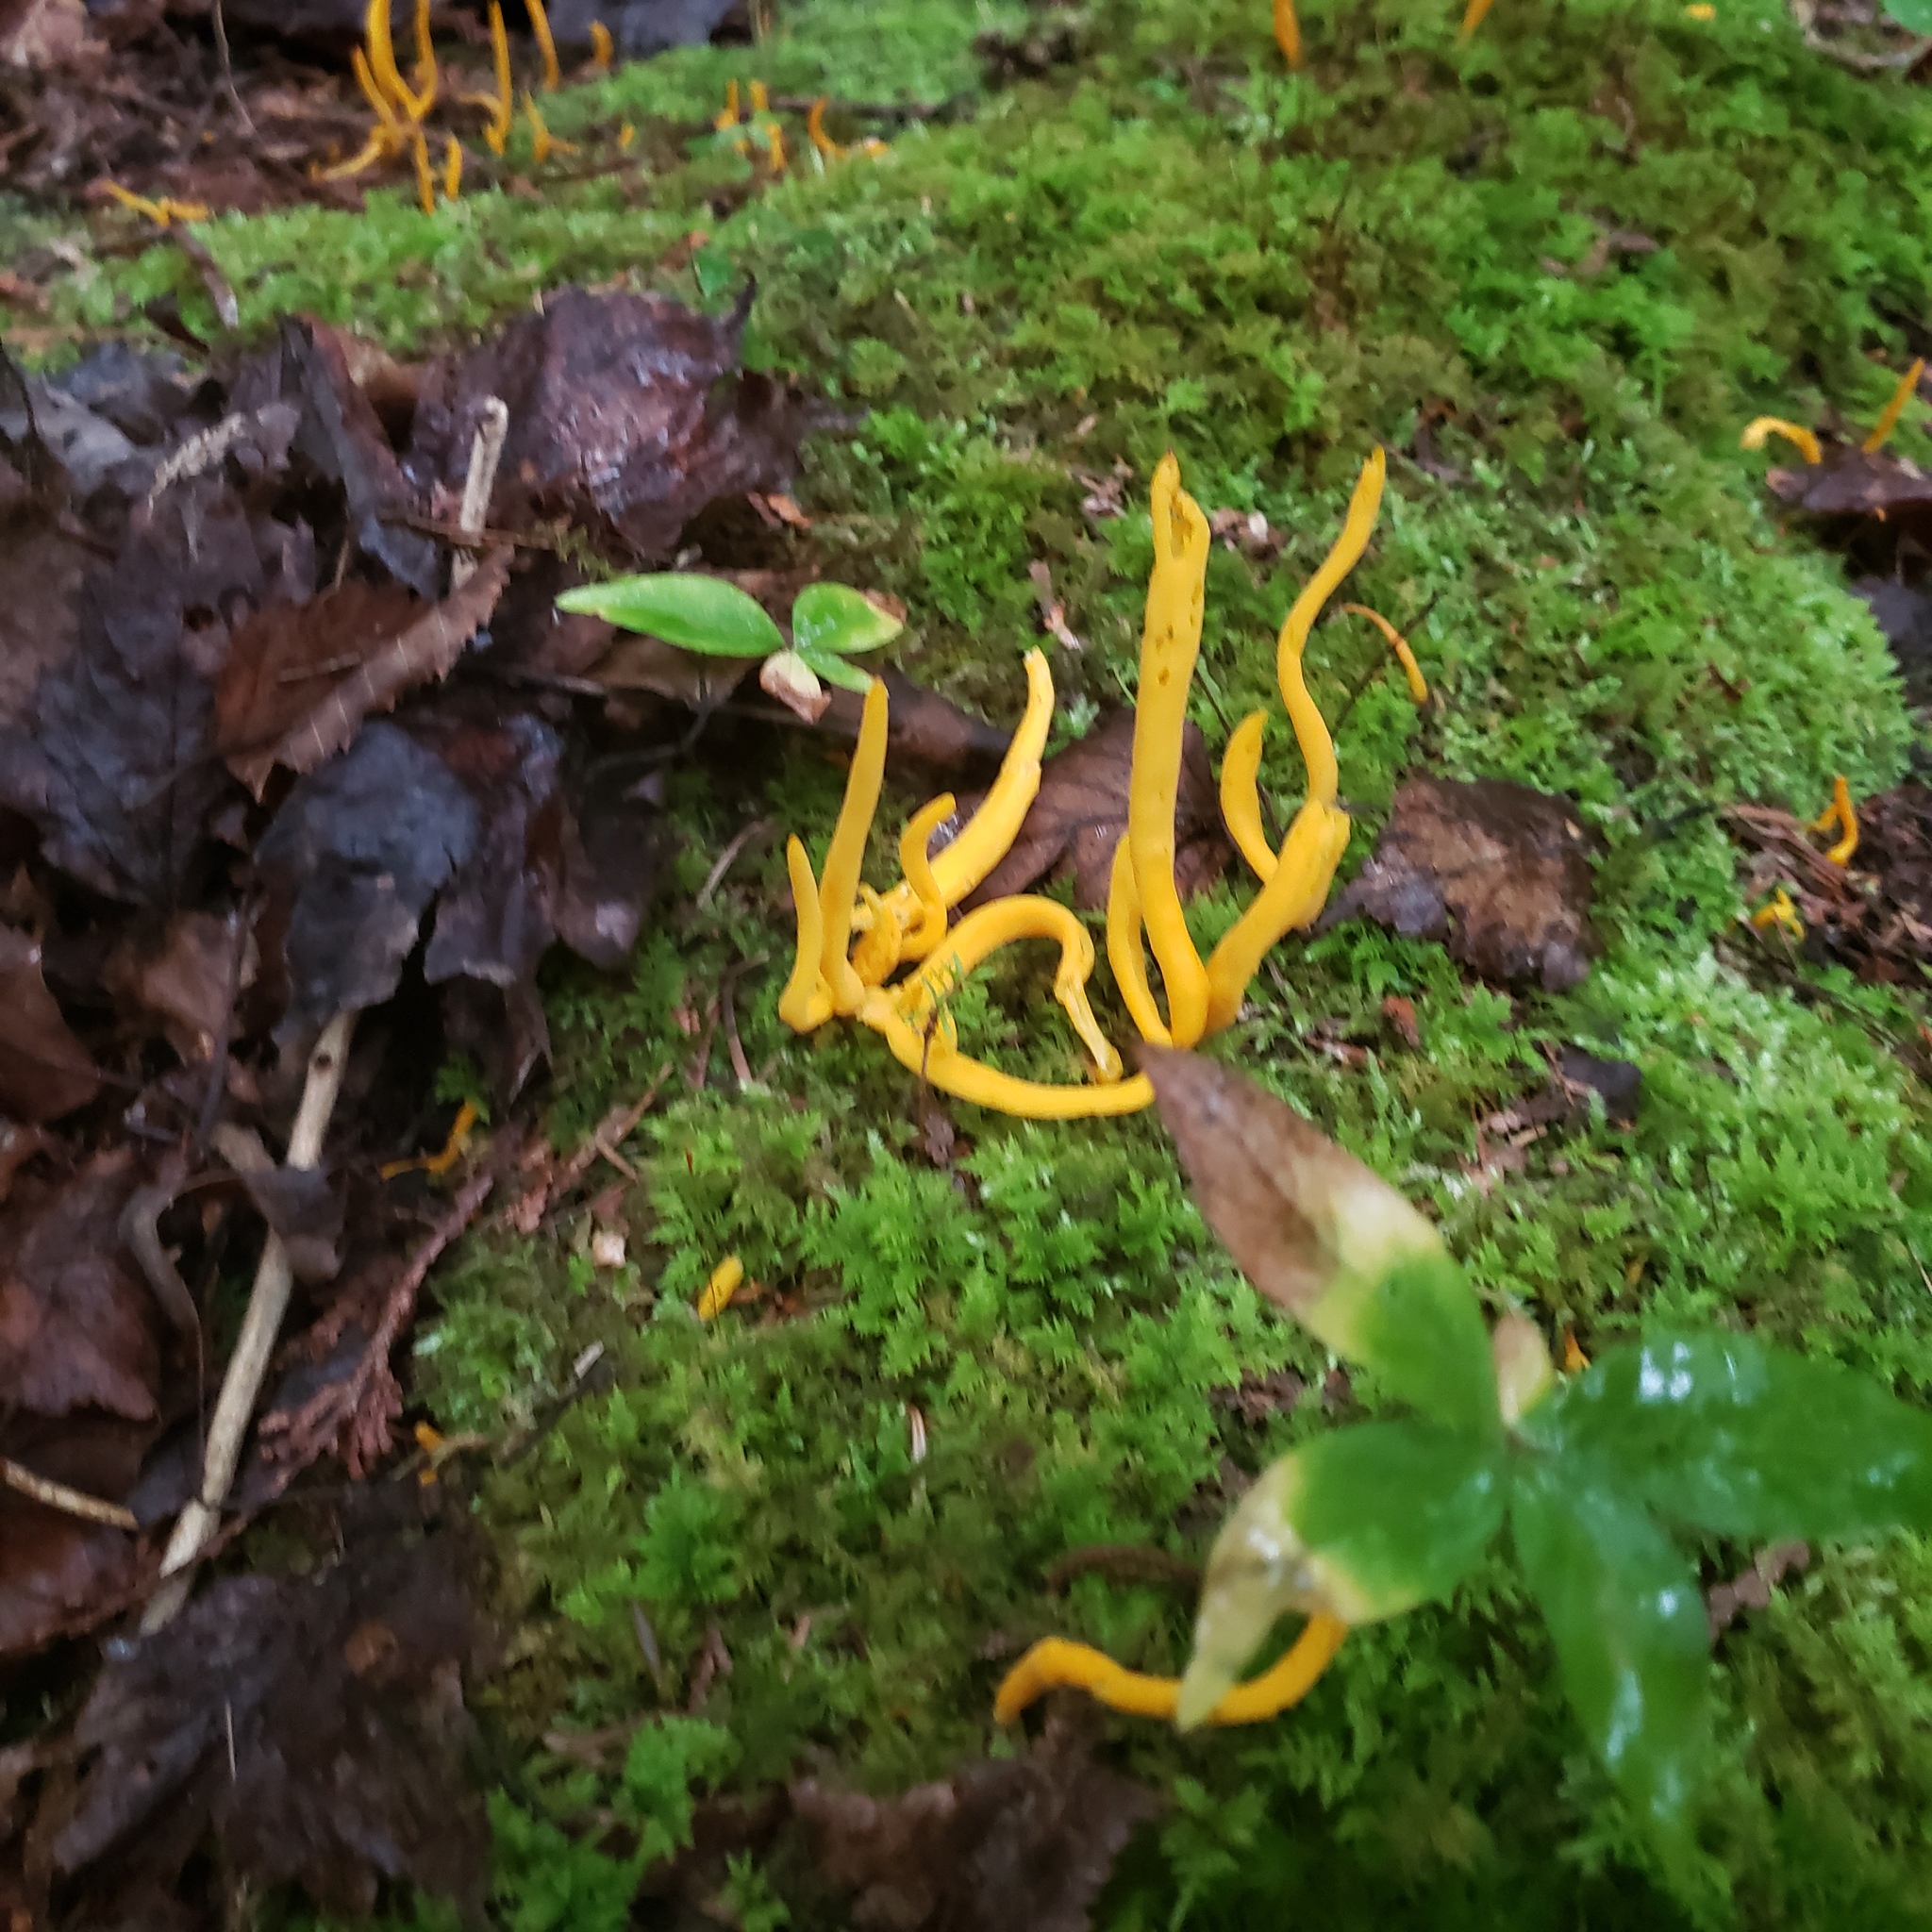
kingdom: Fungi
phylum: Basidiomycota
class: Agaricomycetes
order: Agaricales
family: Clavariaceae
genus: Clavulinopsis
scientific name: Clavulinopsis aurantiocinnabarina
